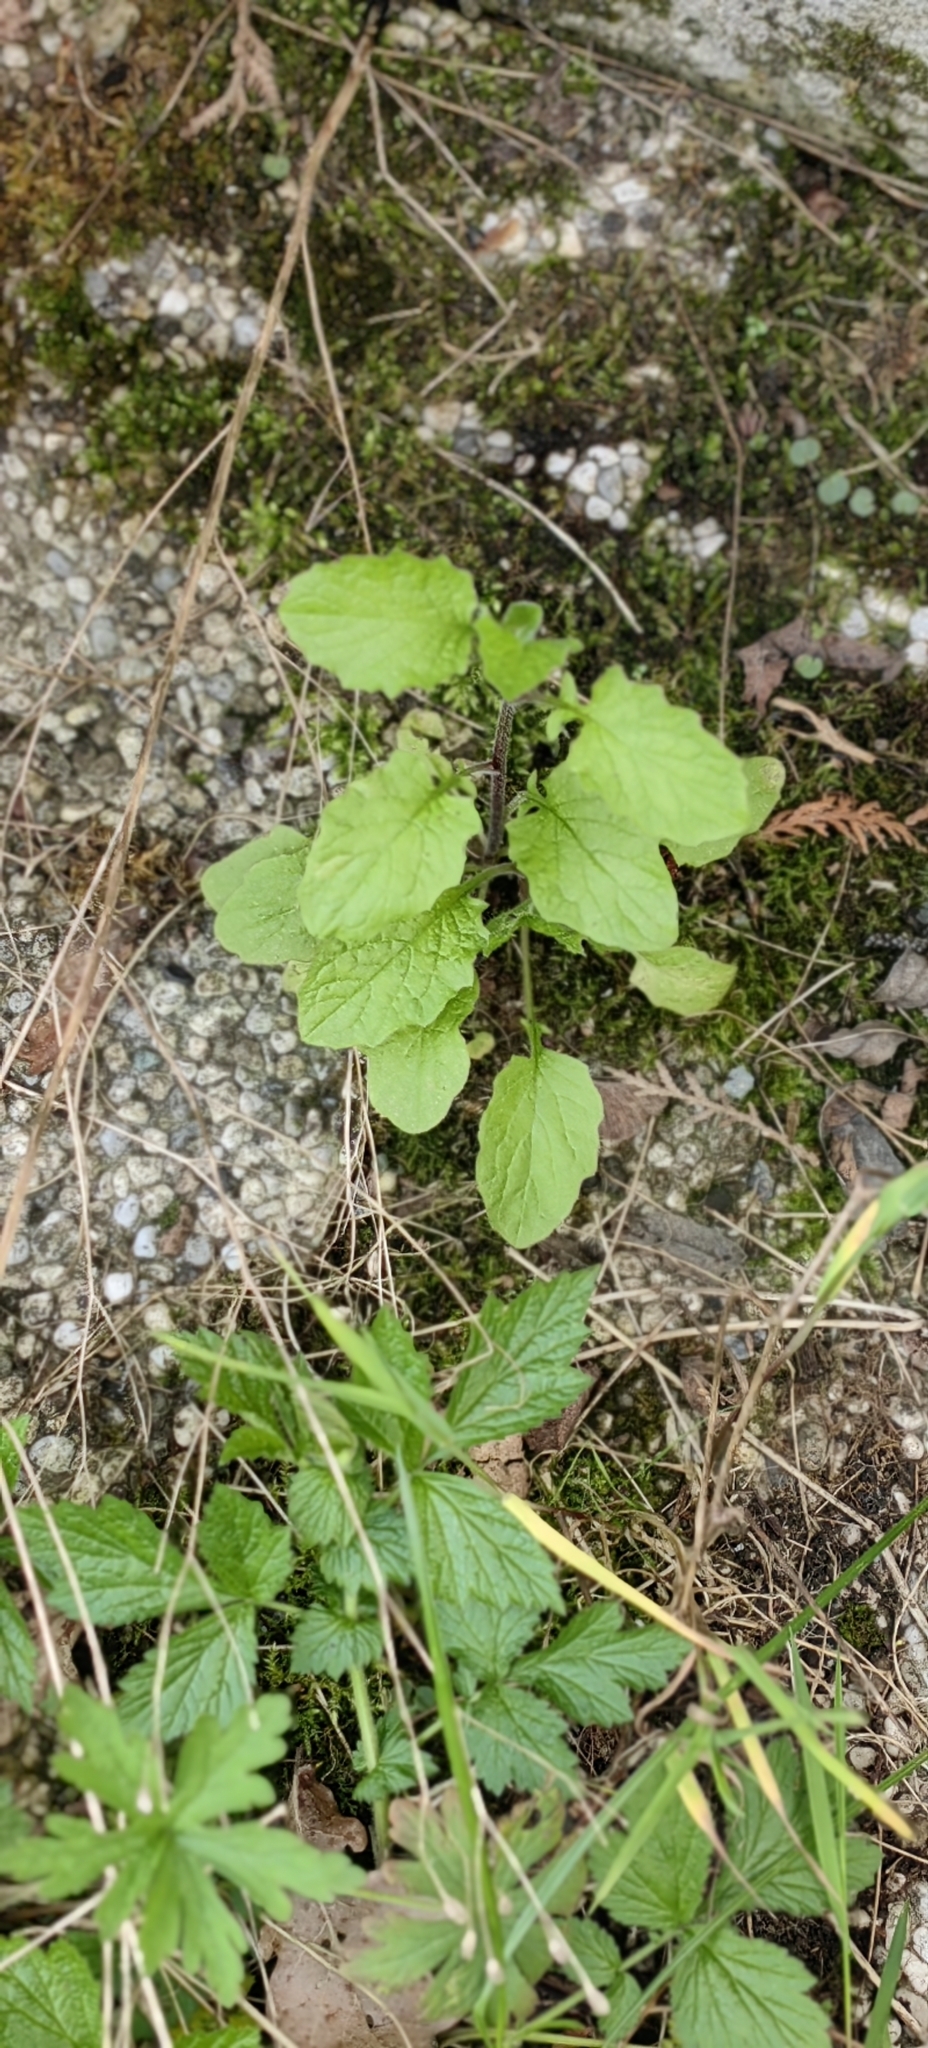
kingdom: Plantae
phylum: Tracheophyta
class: Magnoliopsida
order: Asterales
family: Asteraceae
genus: Lapsana
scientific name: Lapsana communis
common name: Nipplewort
